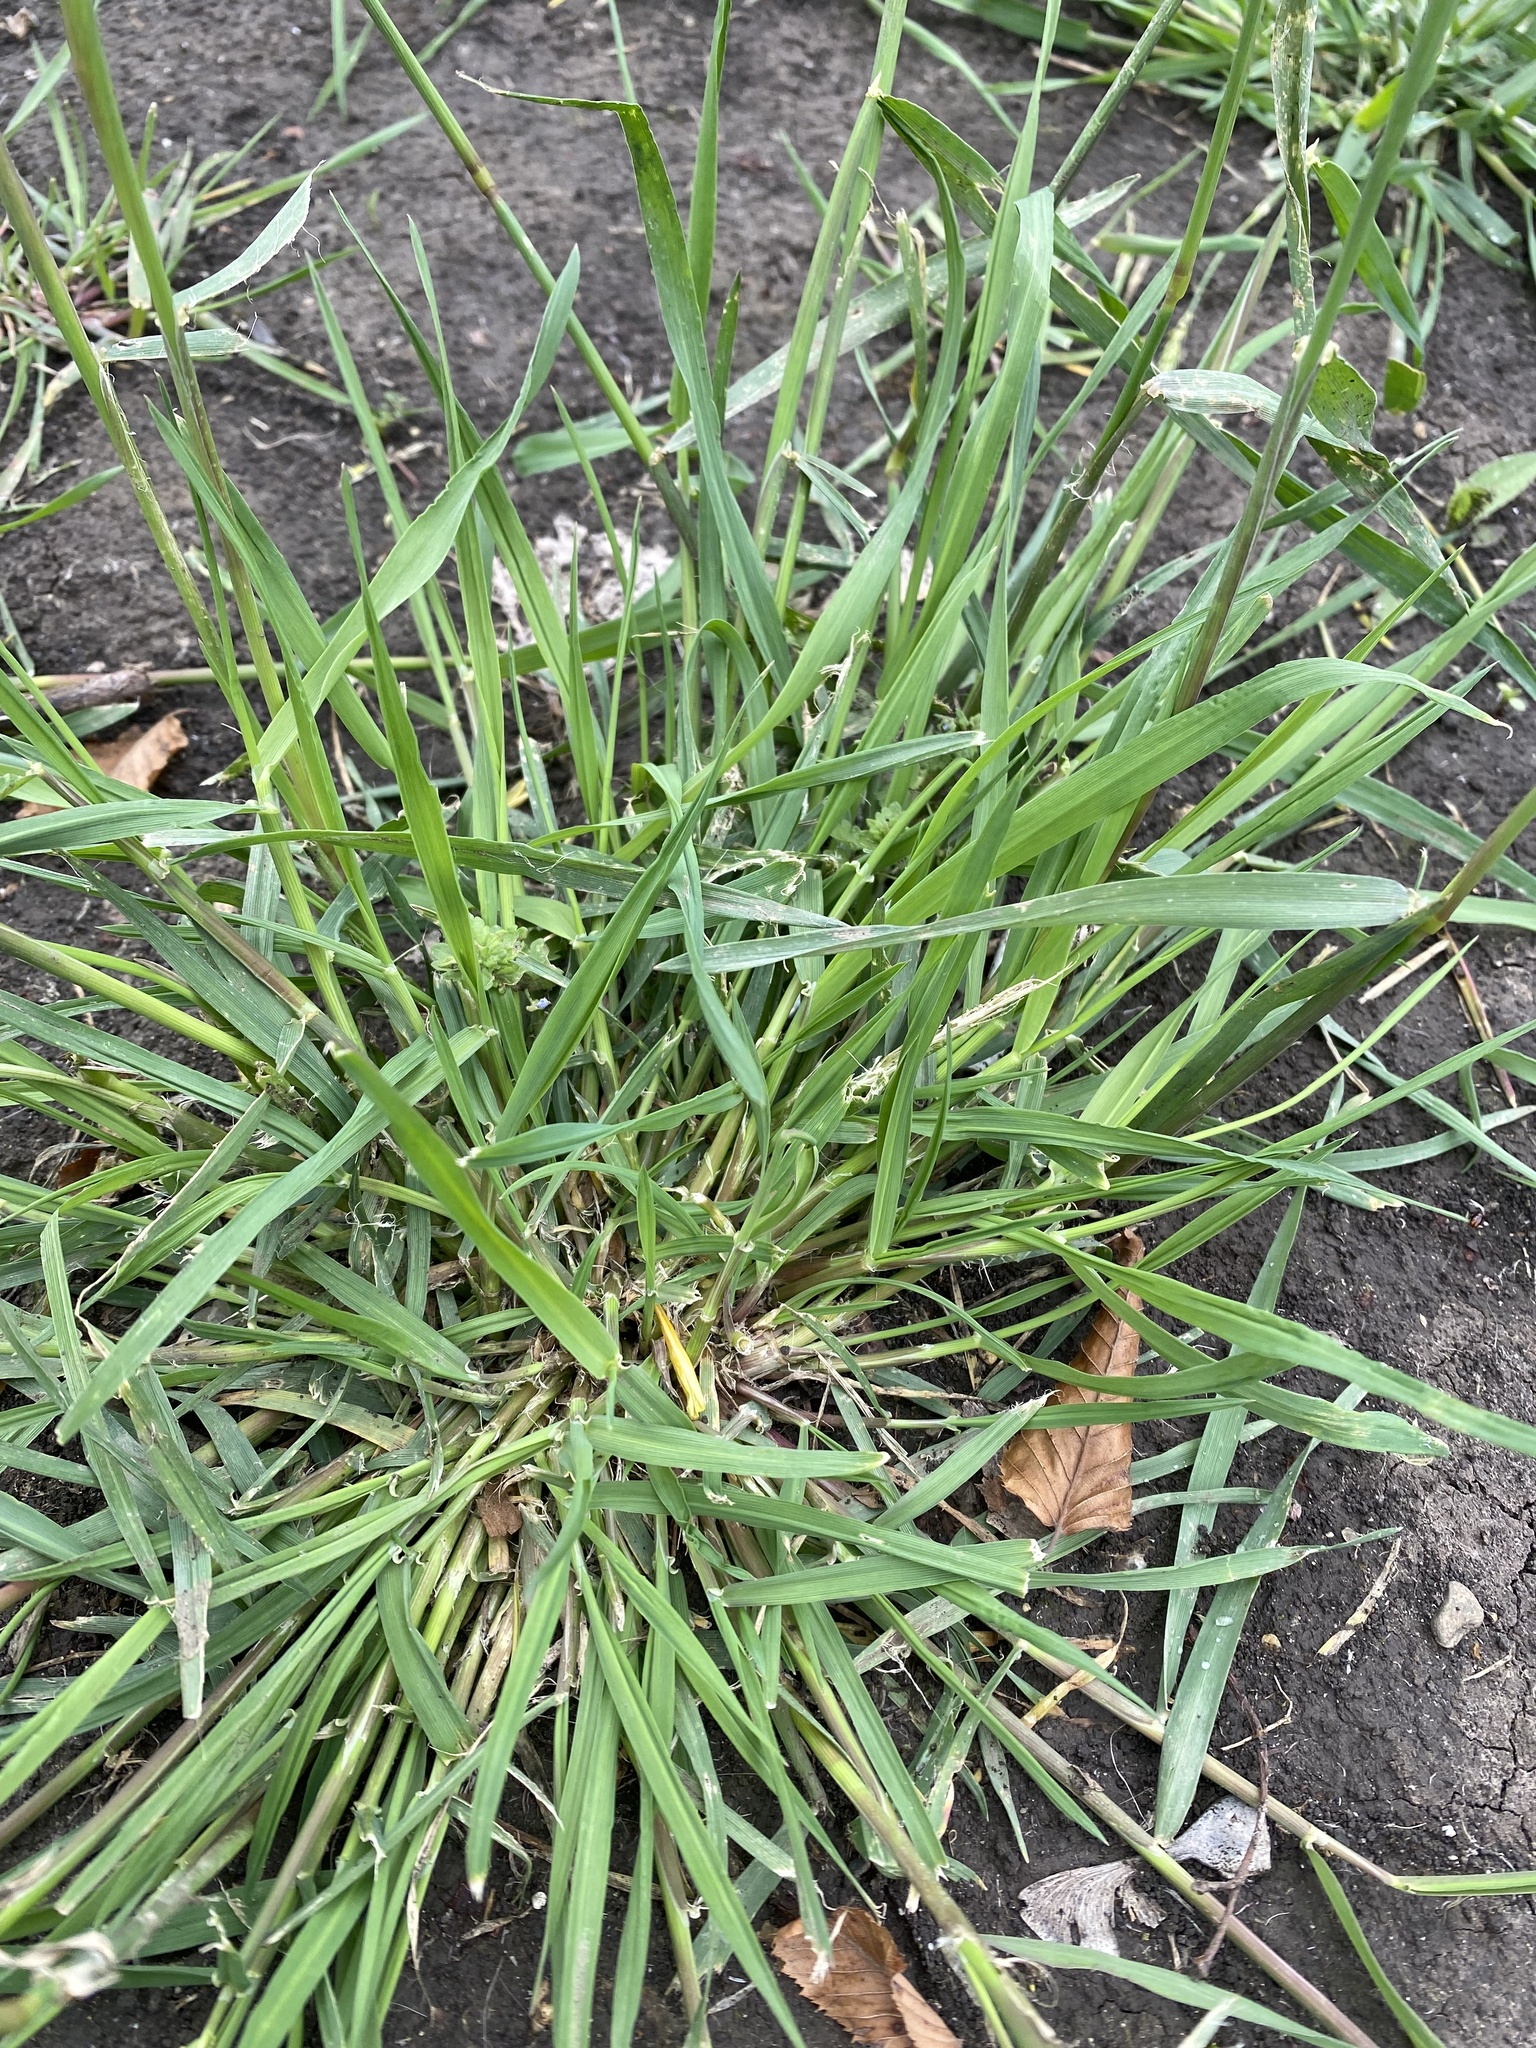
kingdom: Plantae
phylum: Tracheophyta
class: Liliopsida
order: Poales
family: Poaceae
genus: Alopecurus
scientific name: Alopecurus myosuroides
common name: Black-grass
